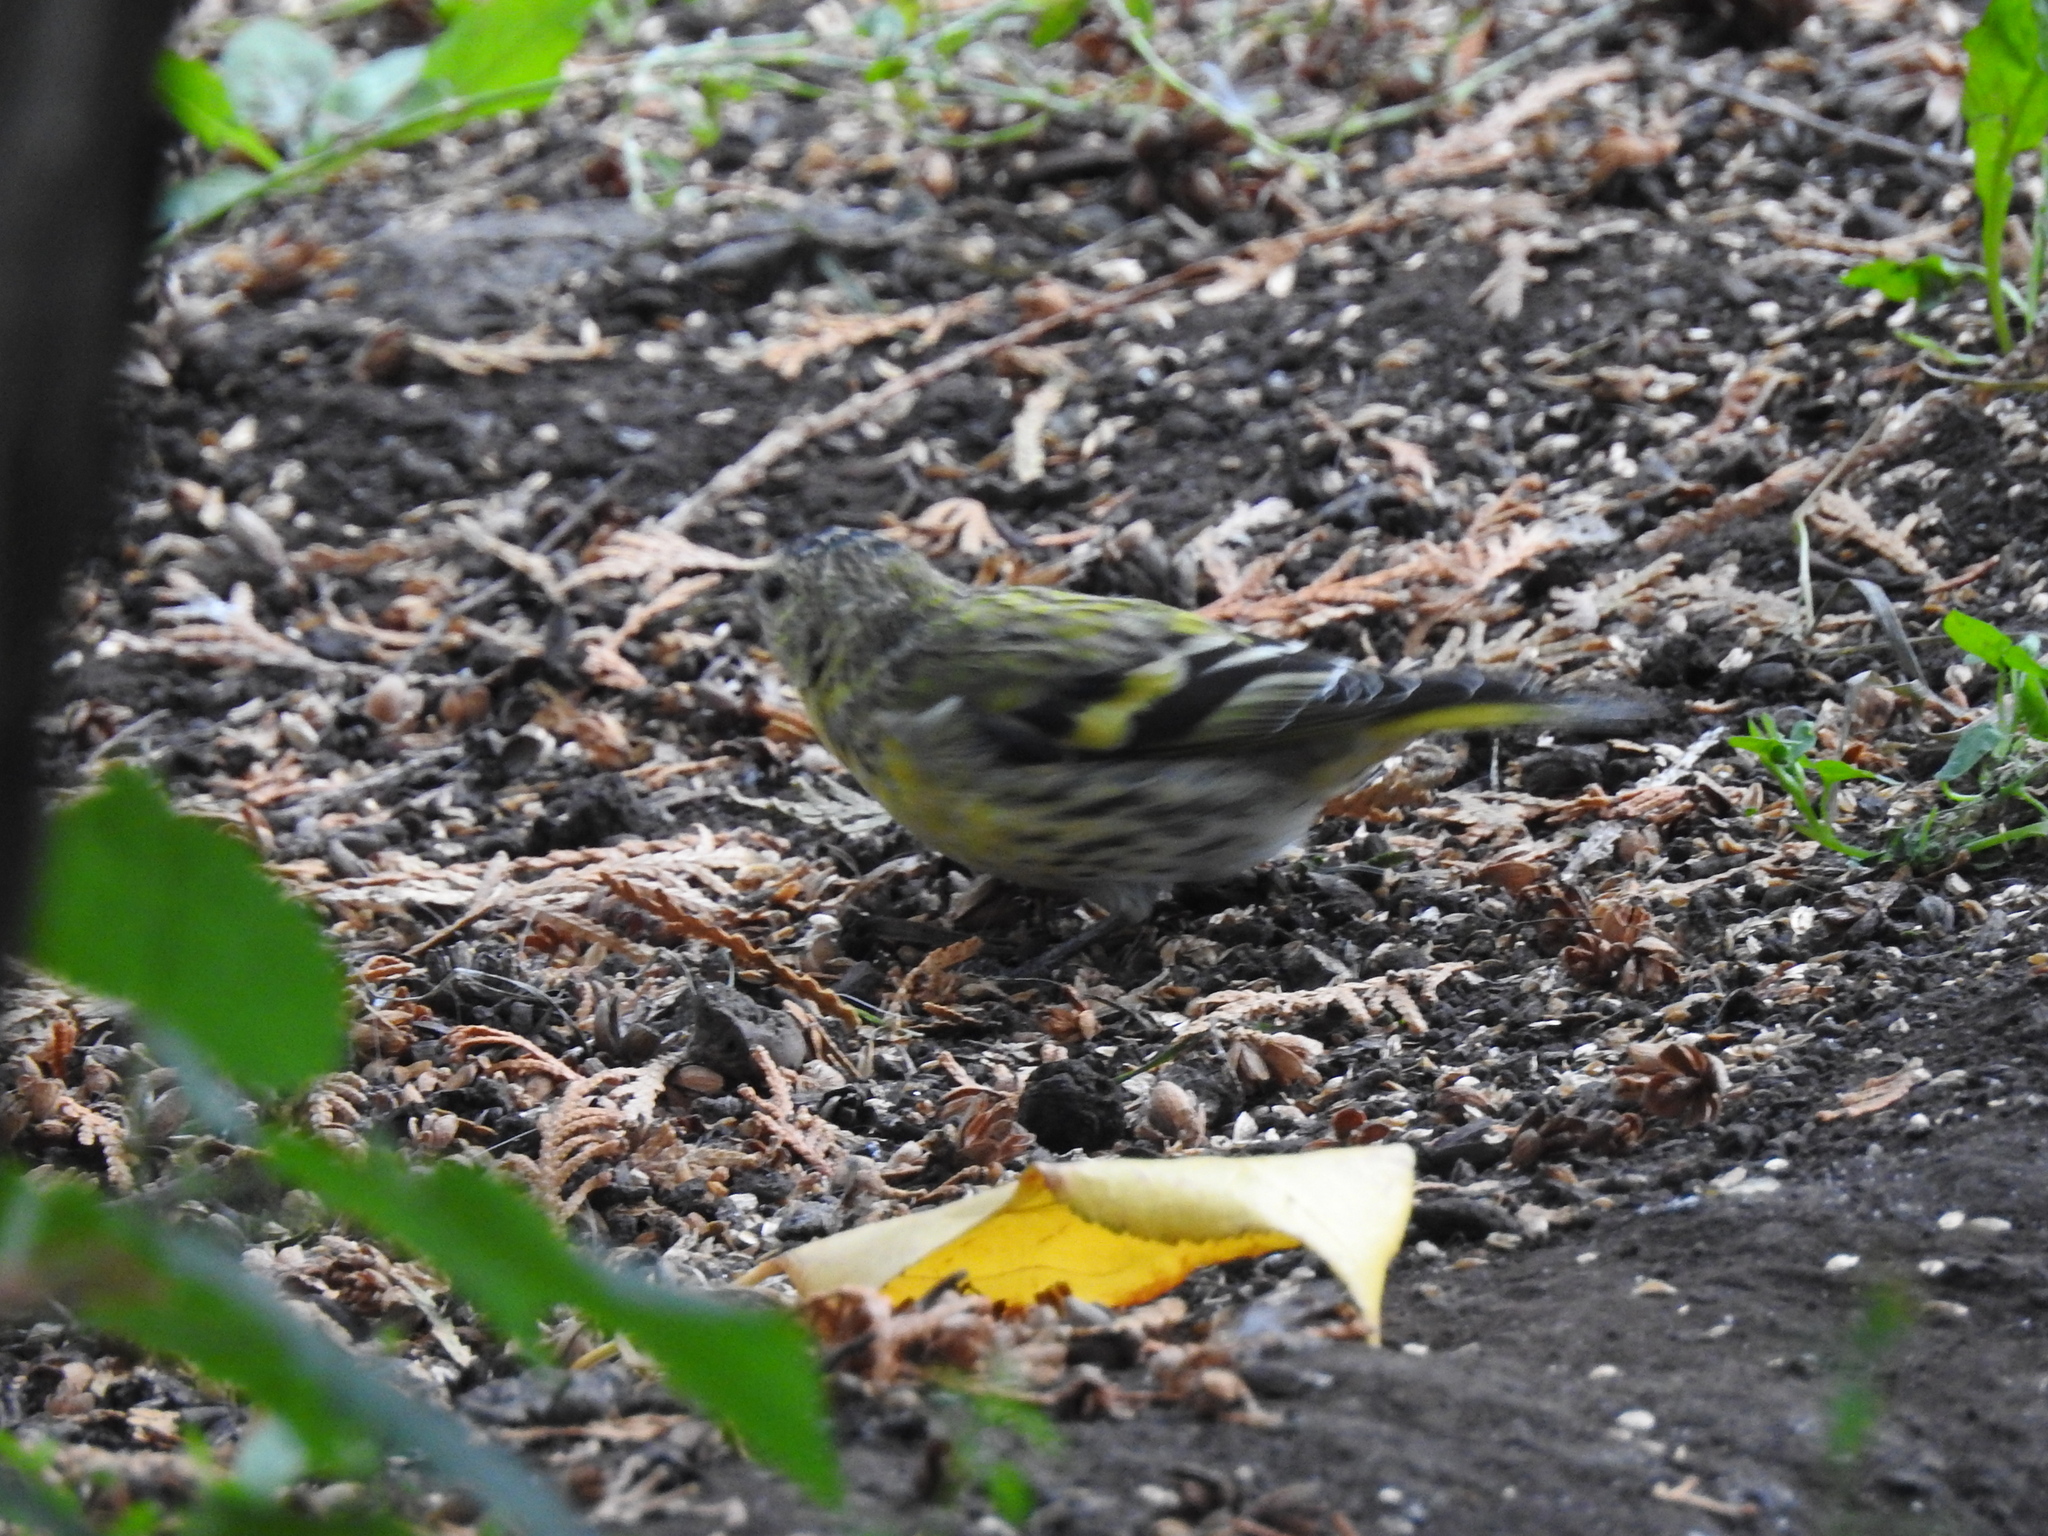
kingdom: Animalia
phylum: Chordata
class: Aves
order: Passeriformes
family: Fringillidae
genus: Spinus
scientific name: Spinus spinus
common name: Eurasian siskin
